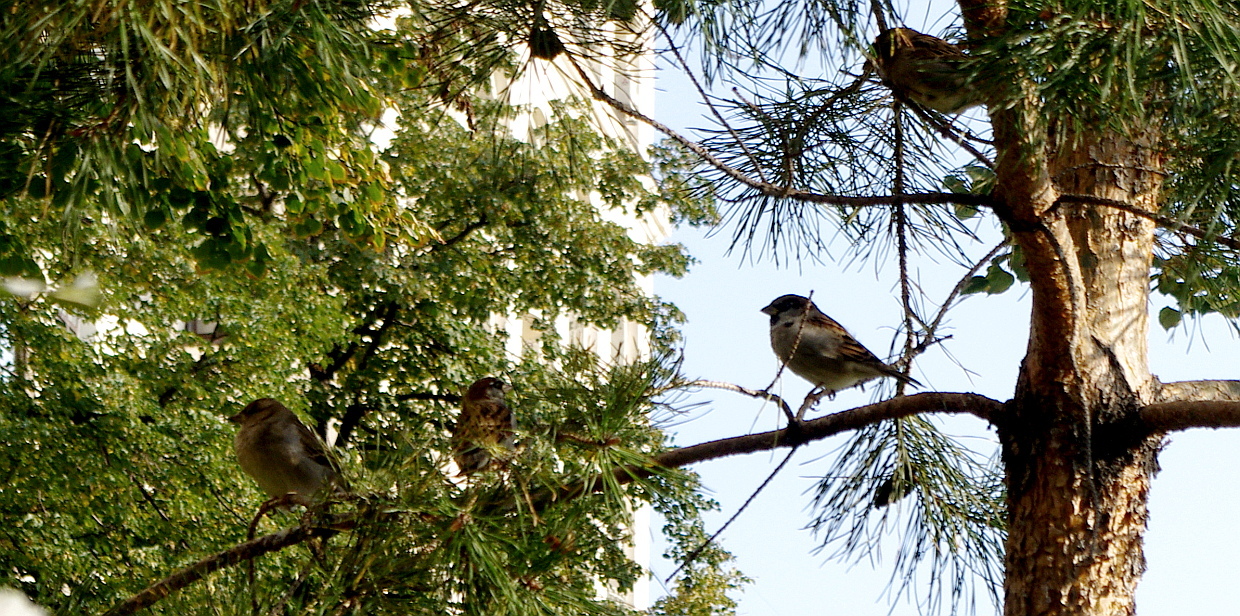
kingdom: Animalia
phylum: Chordata
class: Aves
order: Passeriformes
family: Passeridae
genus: Passer
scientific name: Passer domesticus
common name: House sparrow
